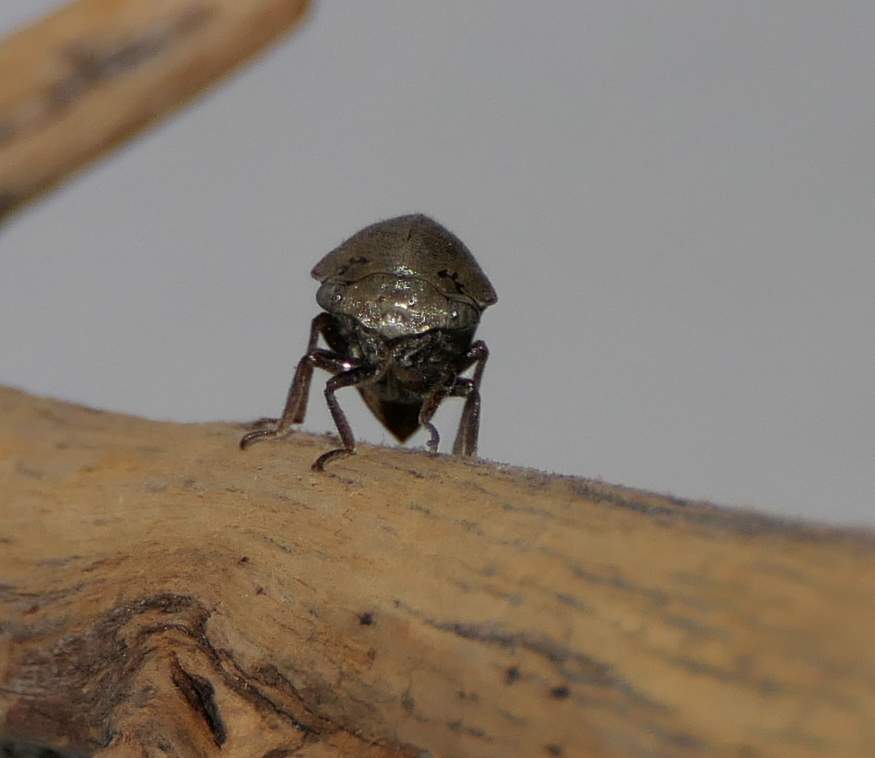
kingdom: Animalia
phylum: Arthropoda
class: Insecta
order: Hemiptera
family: Membracidae
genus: Carynota
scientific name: Carynota mera
